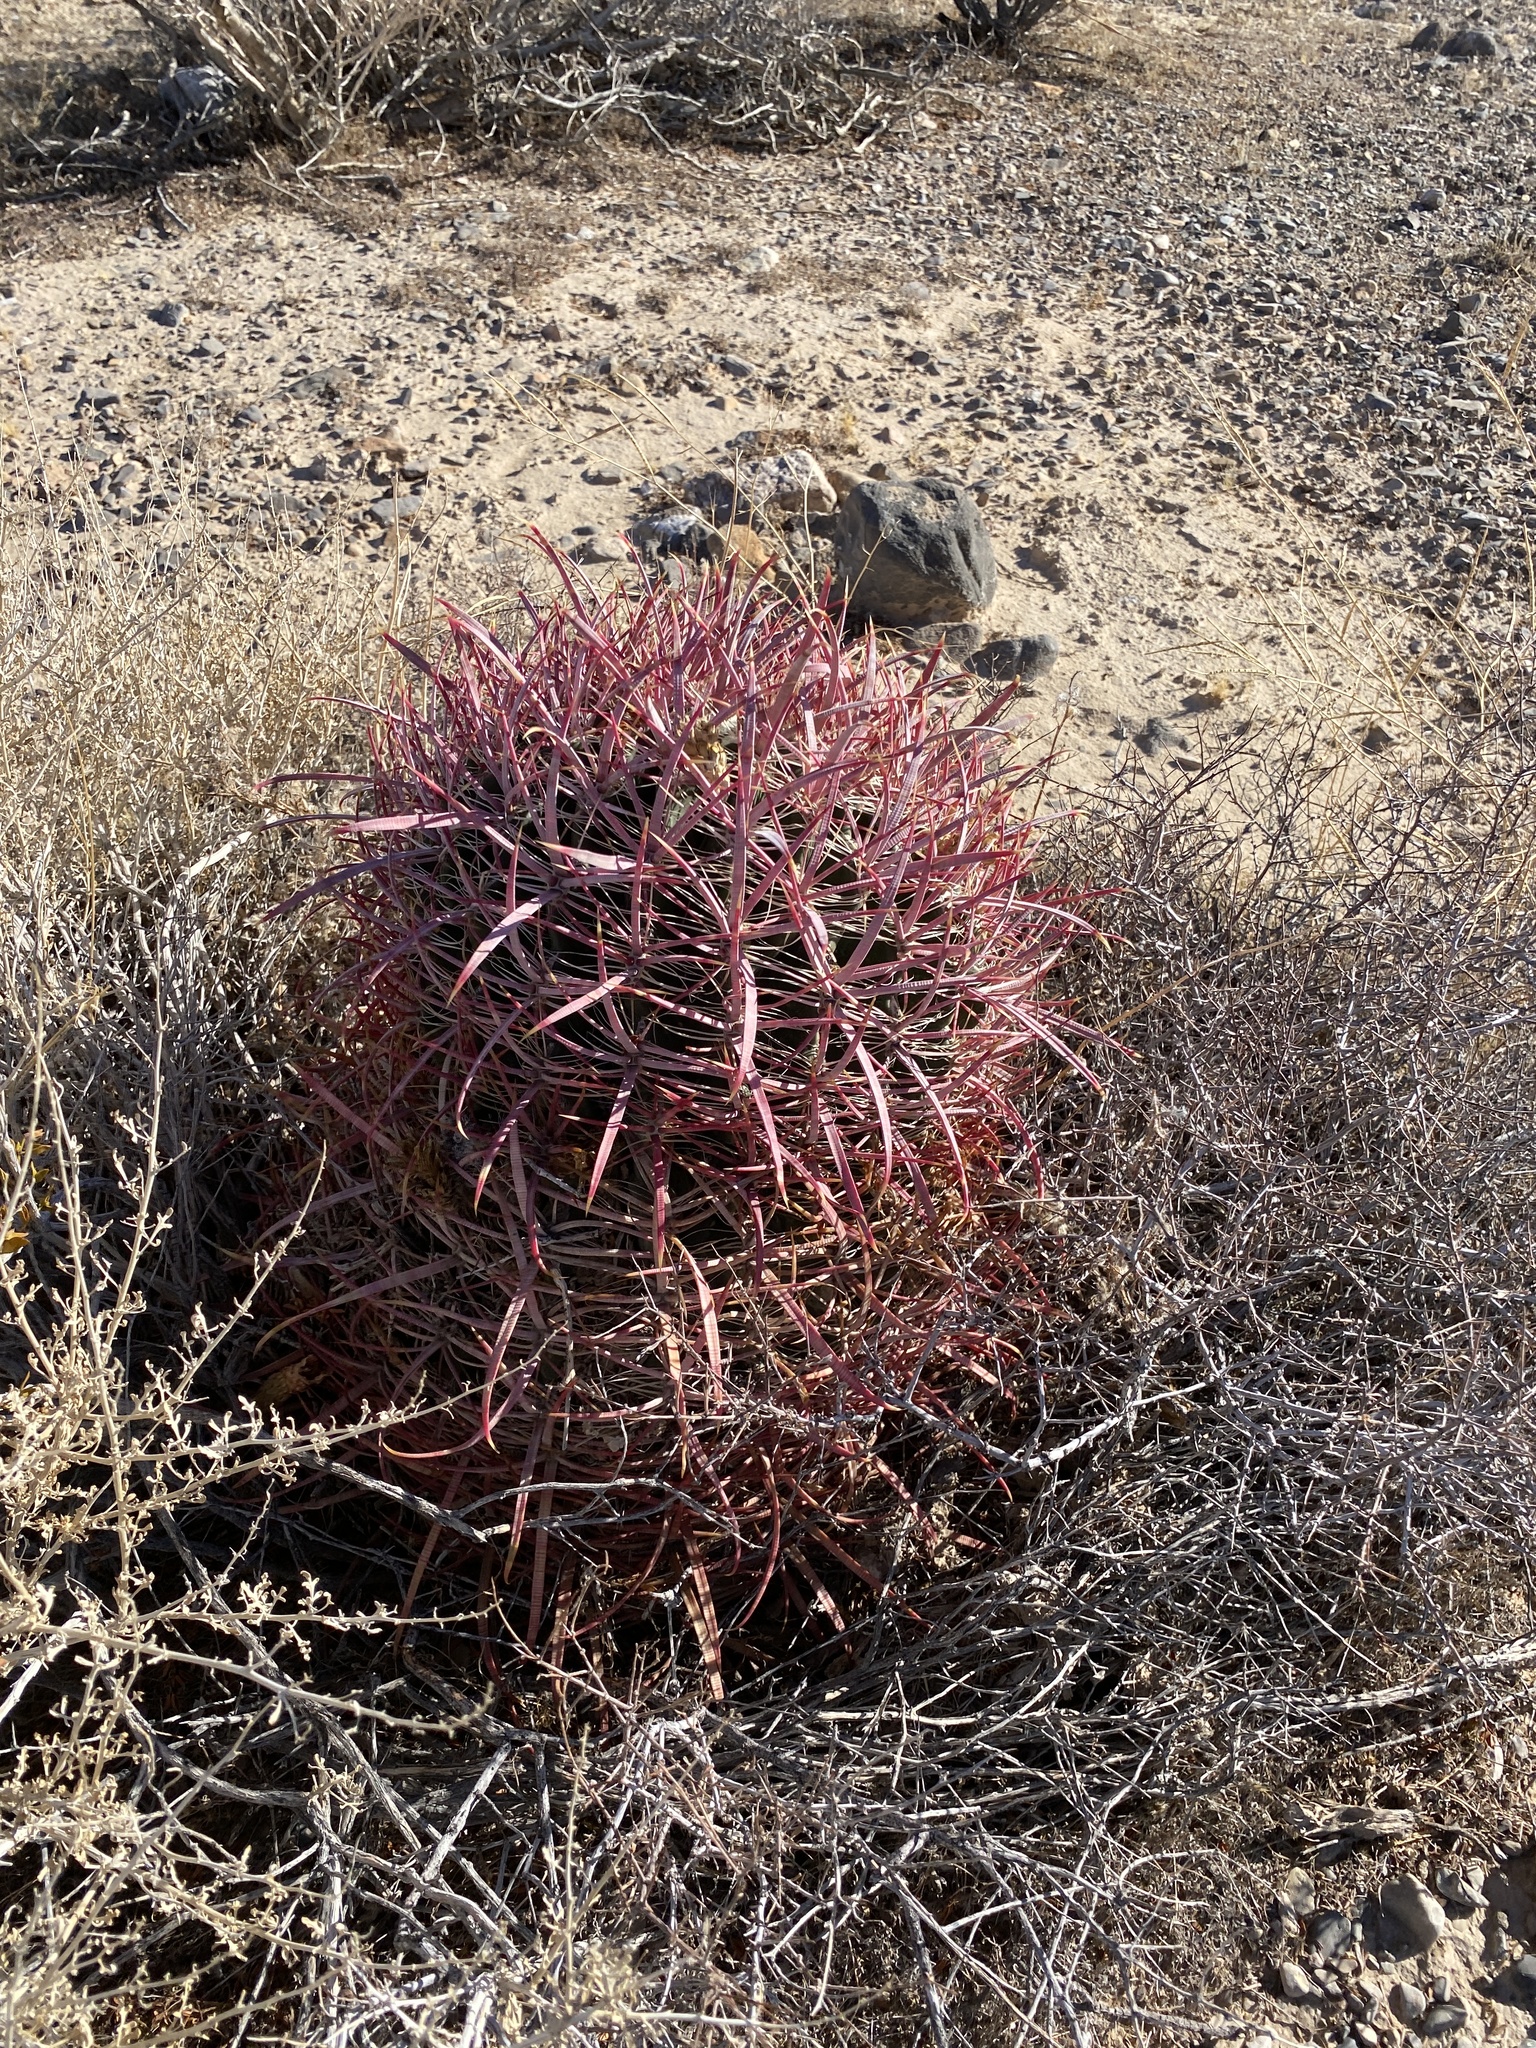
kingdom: Plantae
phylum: Tracheophyta
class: Magnoliopsida
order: Caryophyllales
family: Cactaceae
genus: Ferocactus
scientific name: Ferocactus cylindraceus
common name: California barrel cactus
